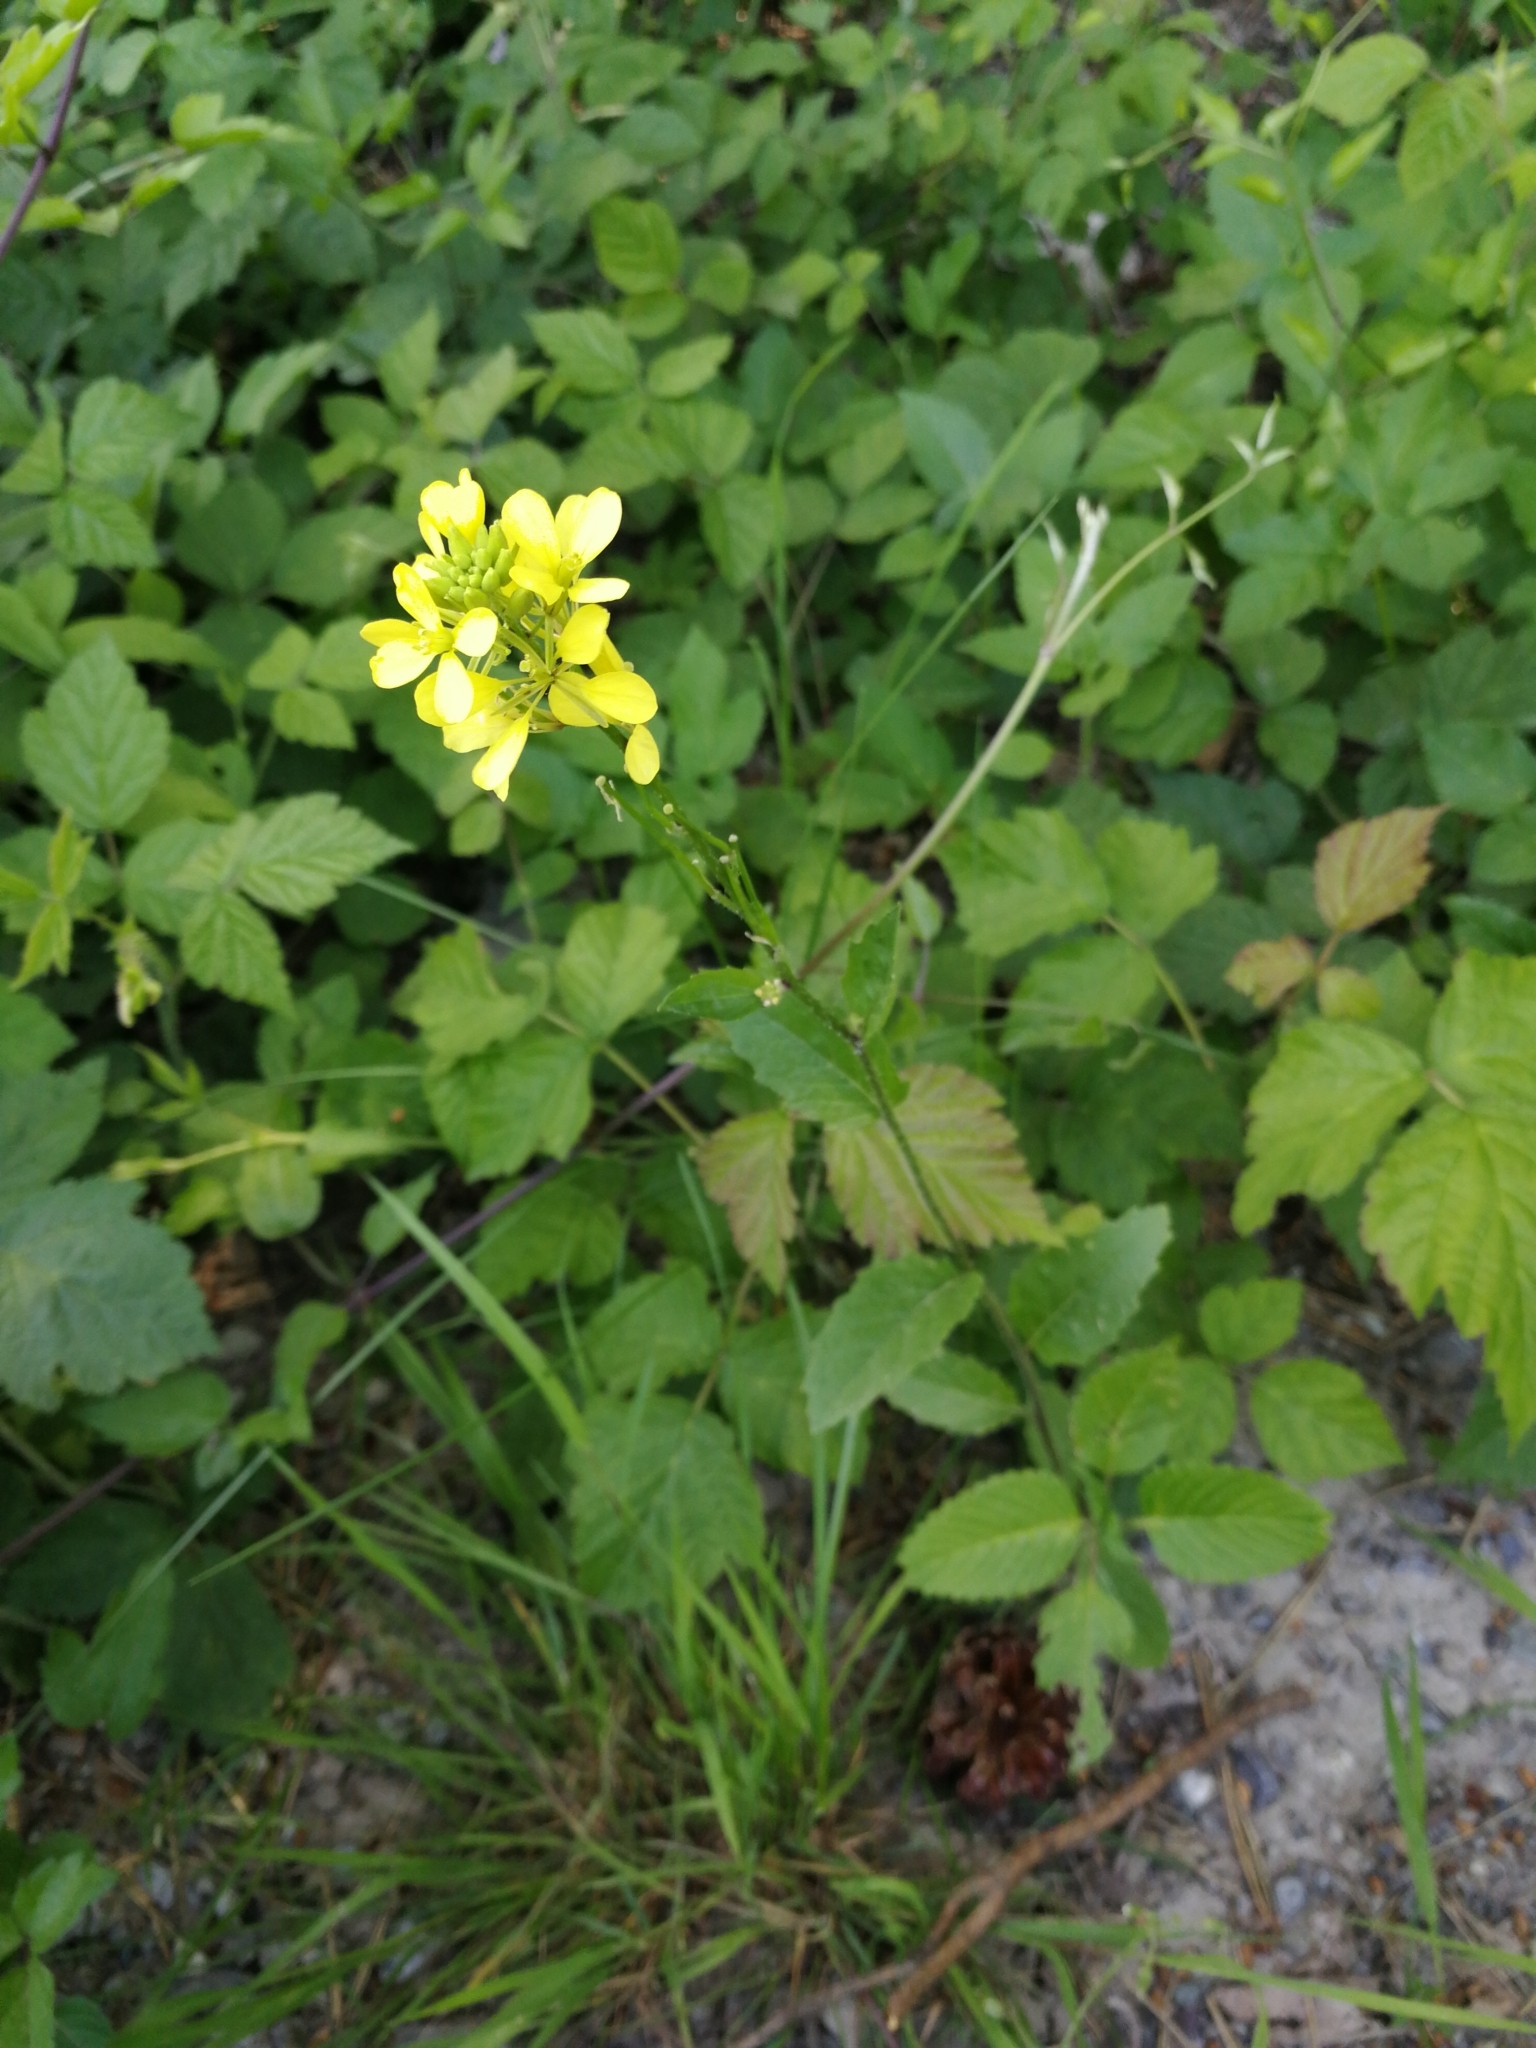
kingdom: Plantae
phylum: Tracheophyta
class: Magnoliopsida
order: Brassicales
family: Brassicaceae
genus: Sinapis
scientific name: Sinapis arvensis
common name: Charlock
